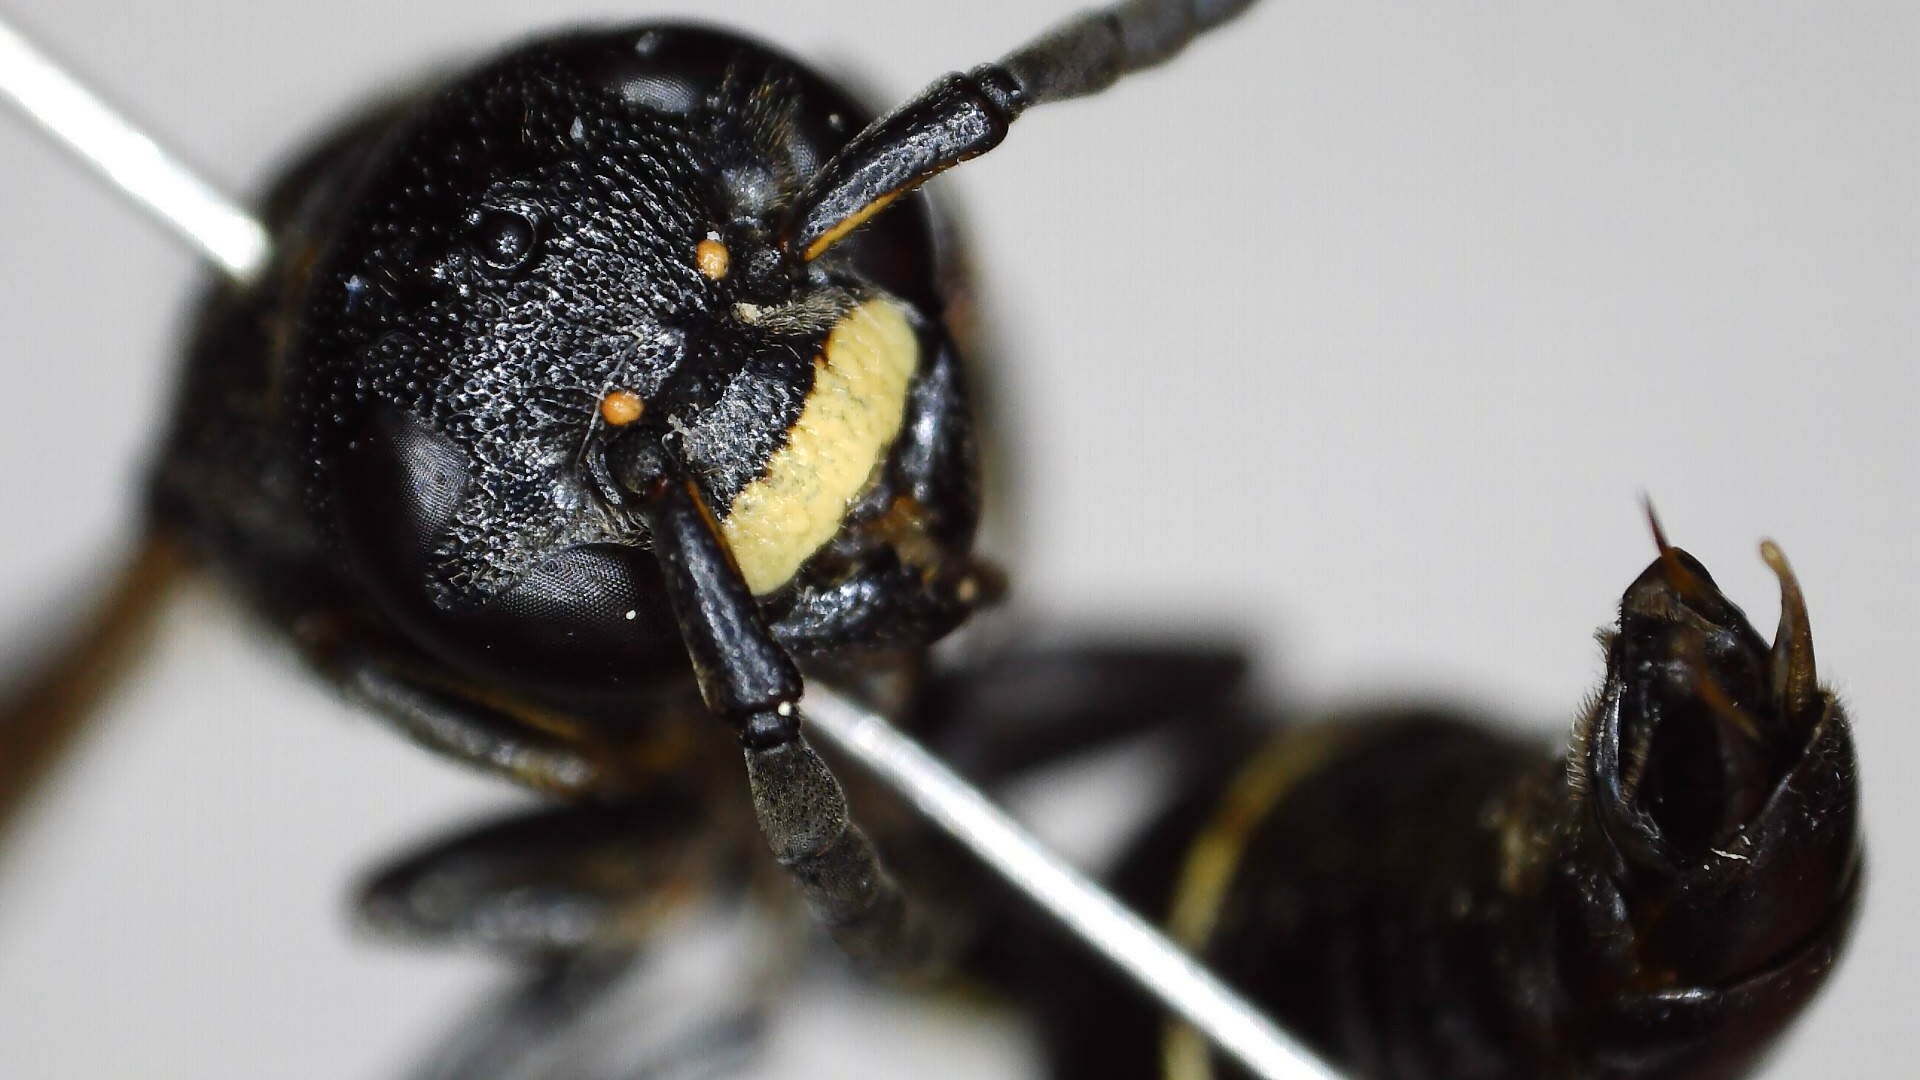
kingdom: Animalia
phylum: Arthropoda
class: Insecta
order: Hymenoptera
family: Eumenidae
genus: Zethus
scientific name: Zethus spinipes
